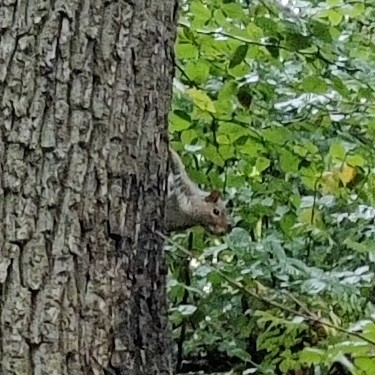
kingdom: Animalia
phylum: Chordata
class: Mammalia
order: Rodentia
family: Sciuridae
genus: Sciurus
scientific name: Sciurus carolinensis
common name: Eastern gray squirrel
